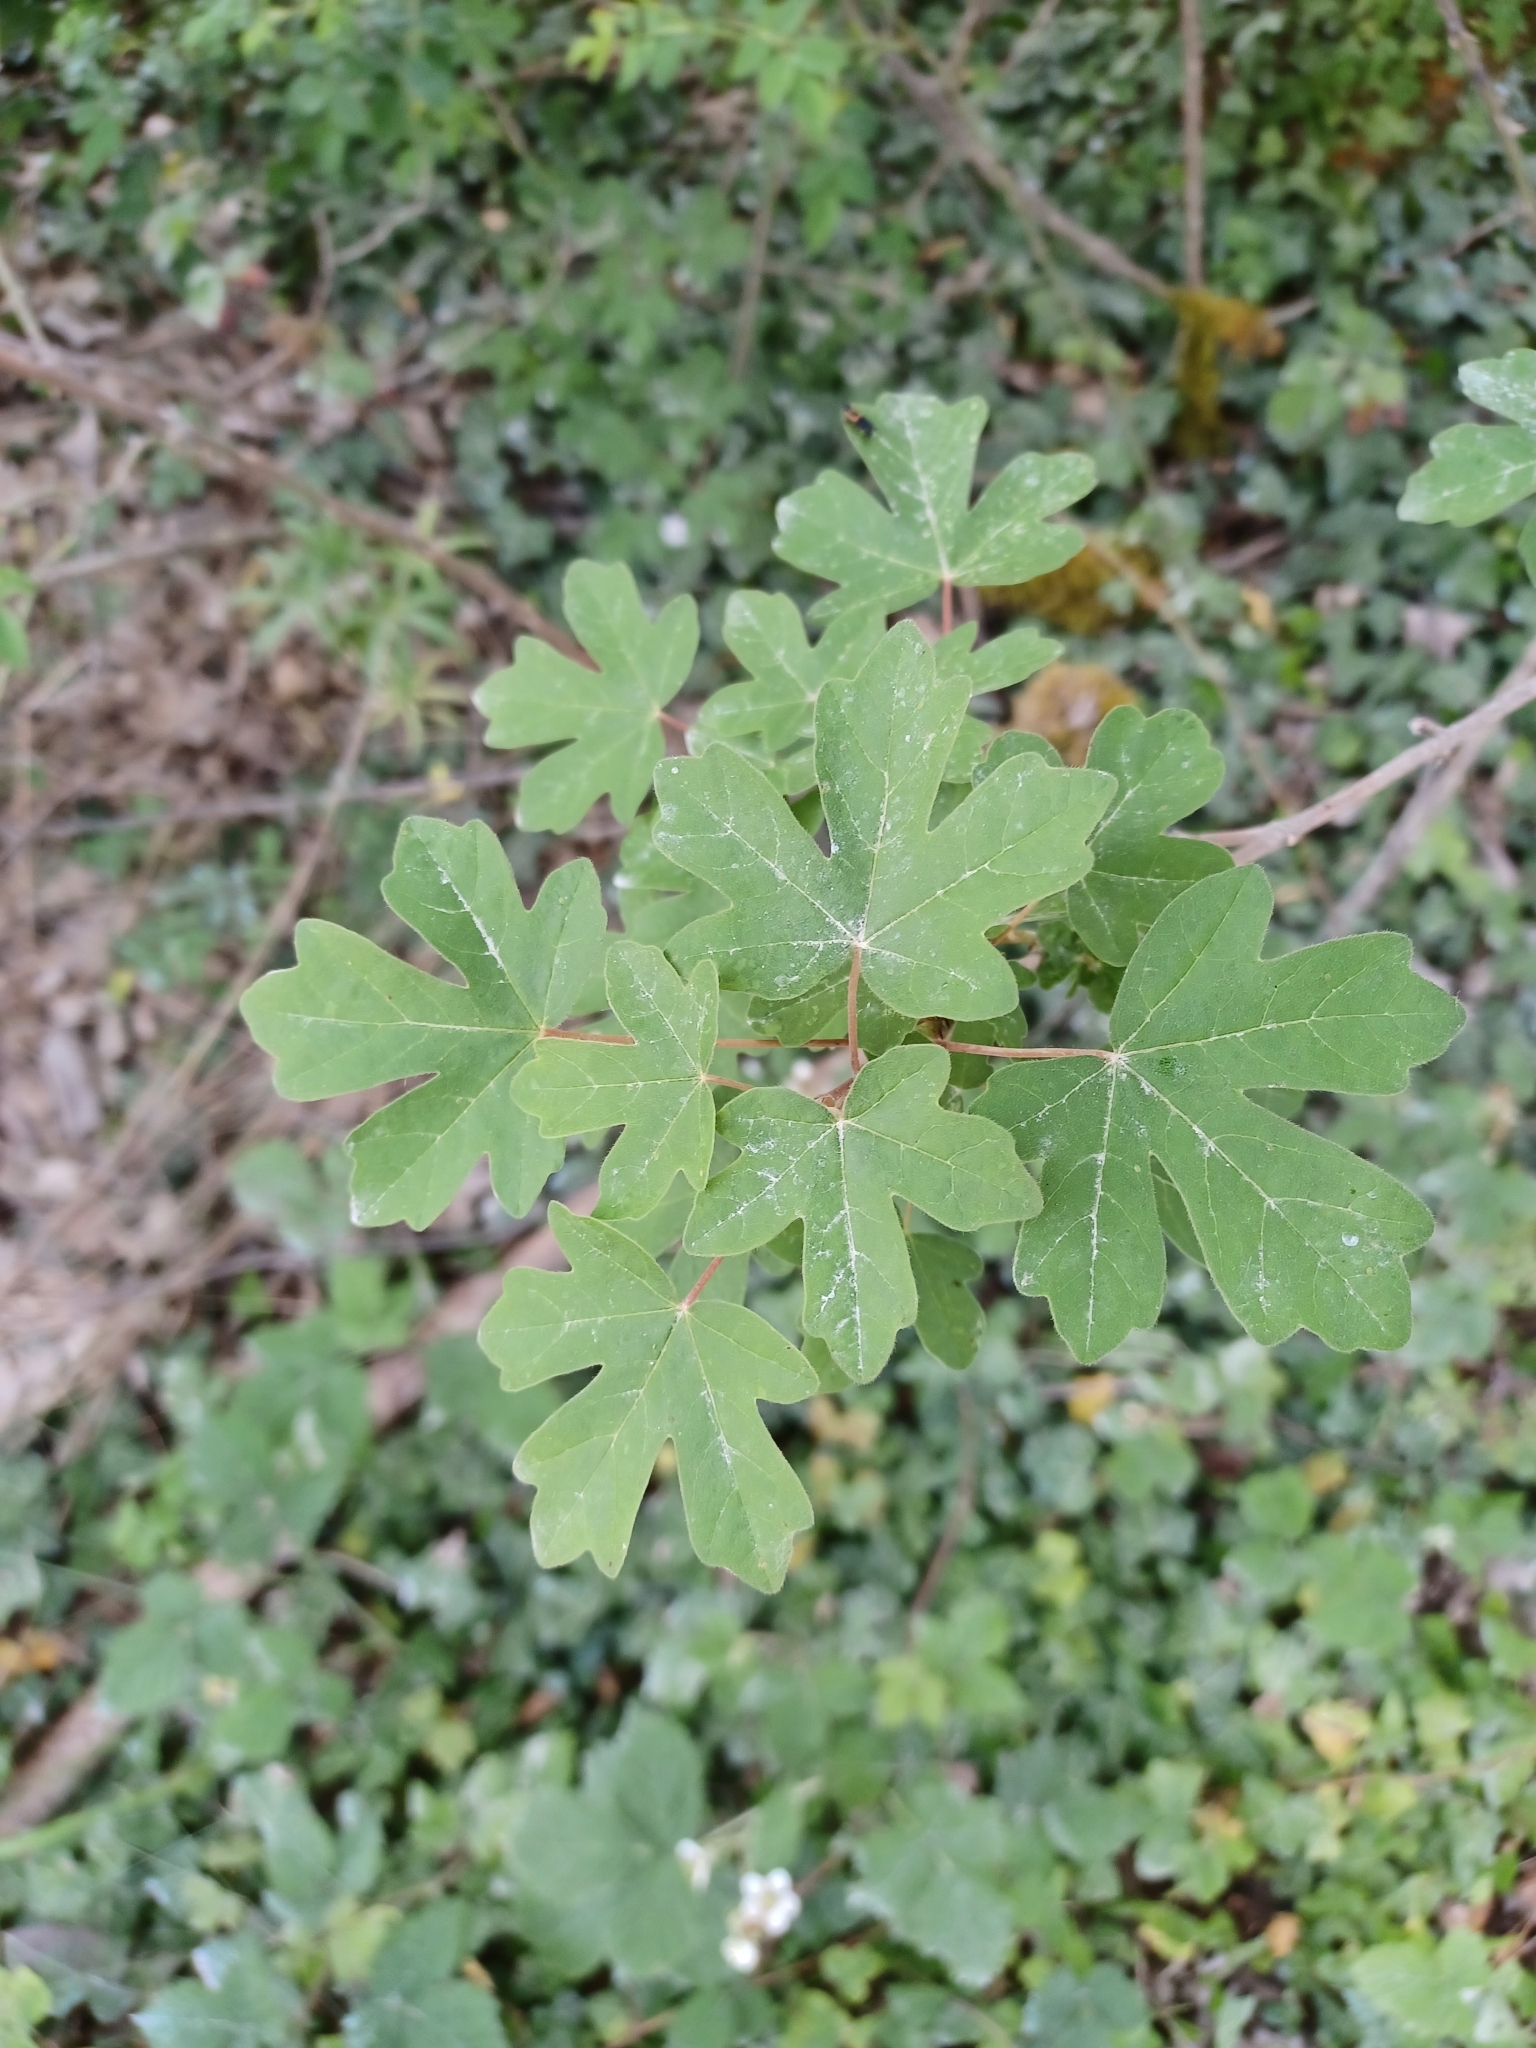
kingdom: Plantae
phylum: Tracheophyta
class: Magnoliopsida
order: Sapindales
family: Sapindaceae
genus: Acer
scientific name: Acer campestre
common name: Field maple
